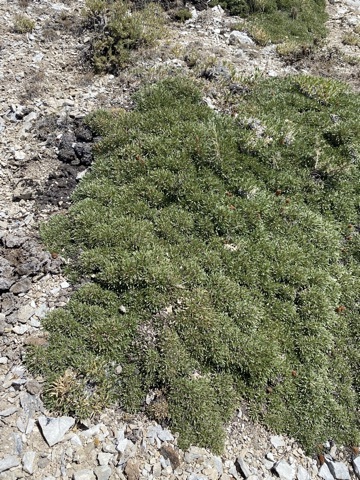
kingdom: Plantae
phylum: Tracheophyta
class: Magnoliopsida
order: Rosales
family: Rosaceae
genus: Petrophytum
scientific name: Petrophytum caespitosum
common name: Mat rockspirea
